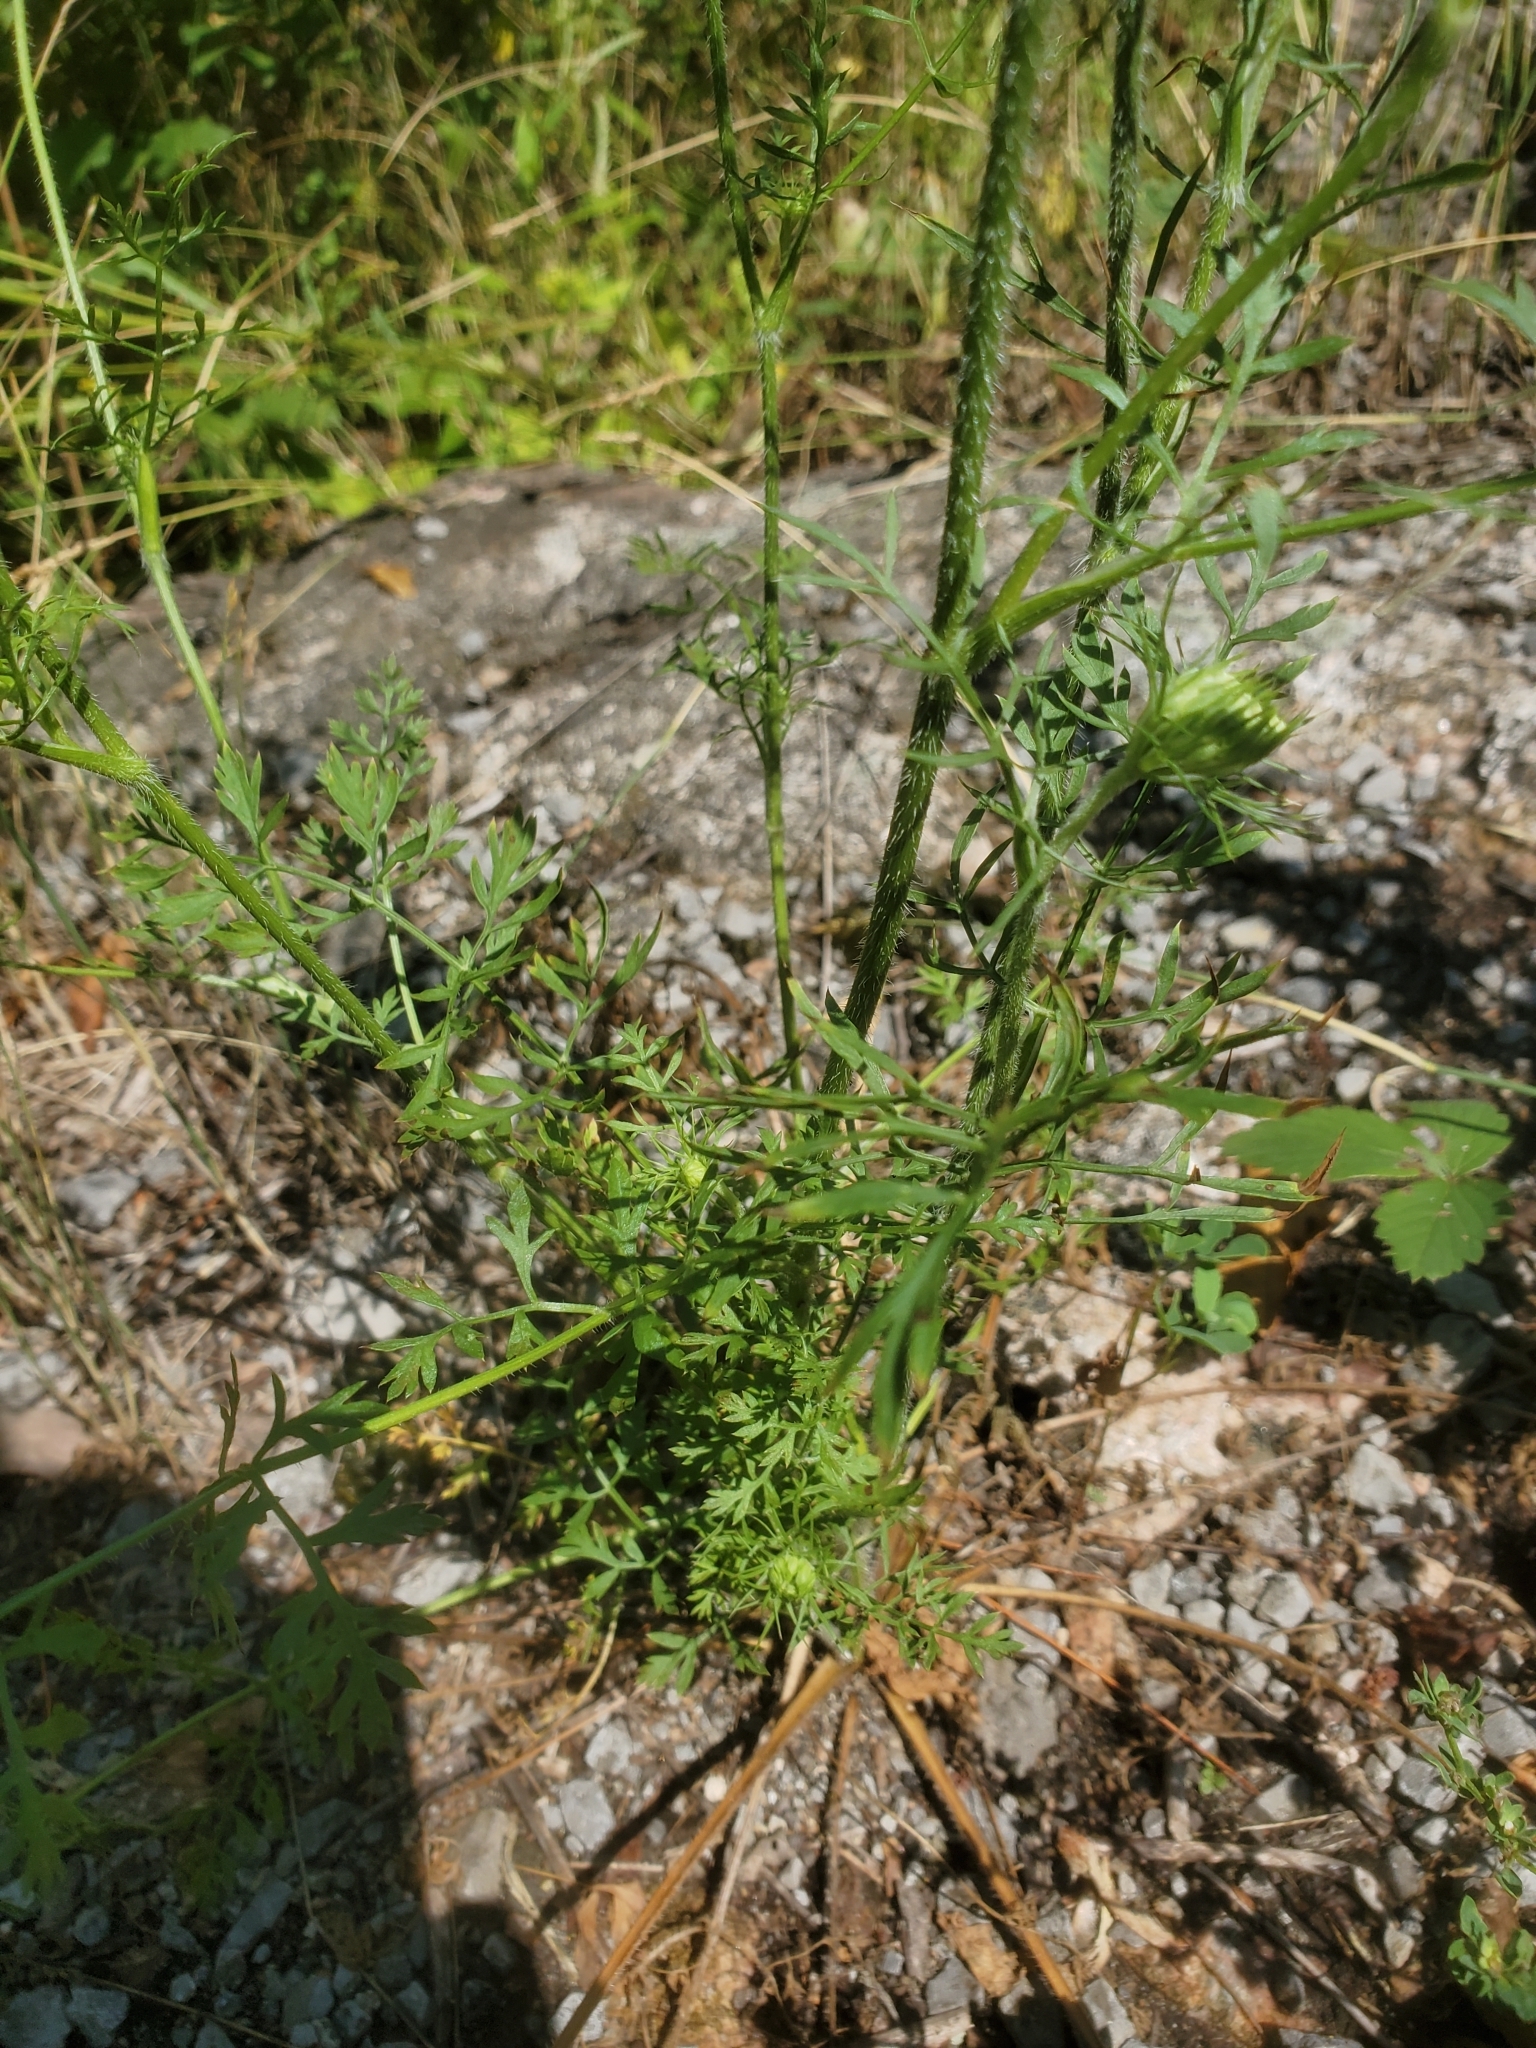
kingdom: Plantae
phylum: Tracheophyta
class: Magnoliopsida
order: Apiales
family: Apiaceae
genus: Daucus
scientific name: Daucus carota
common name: Wild carrot
